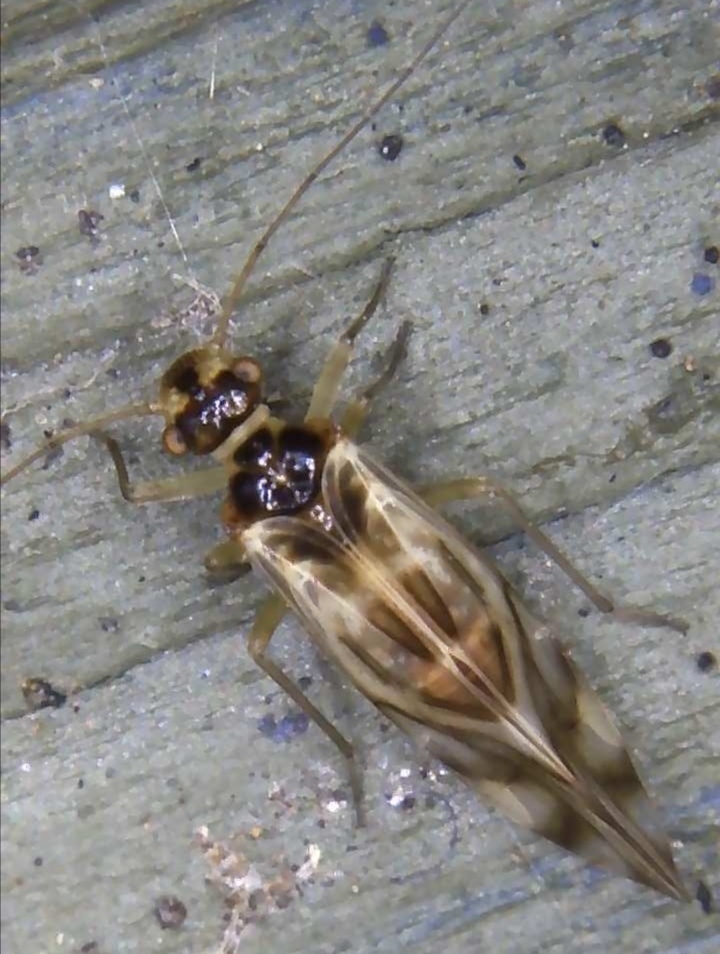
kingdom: Animalia
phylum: Arthropoda
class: Insecta
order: Psocodea
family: Stenopsocidae
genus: Graphopsocus
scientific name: Graphopsocus cruciatus
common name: Lizard bark louse
